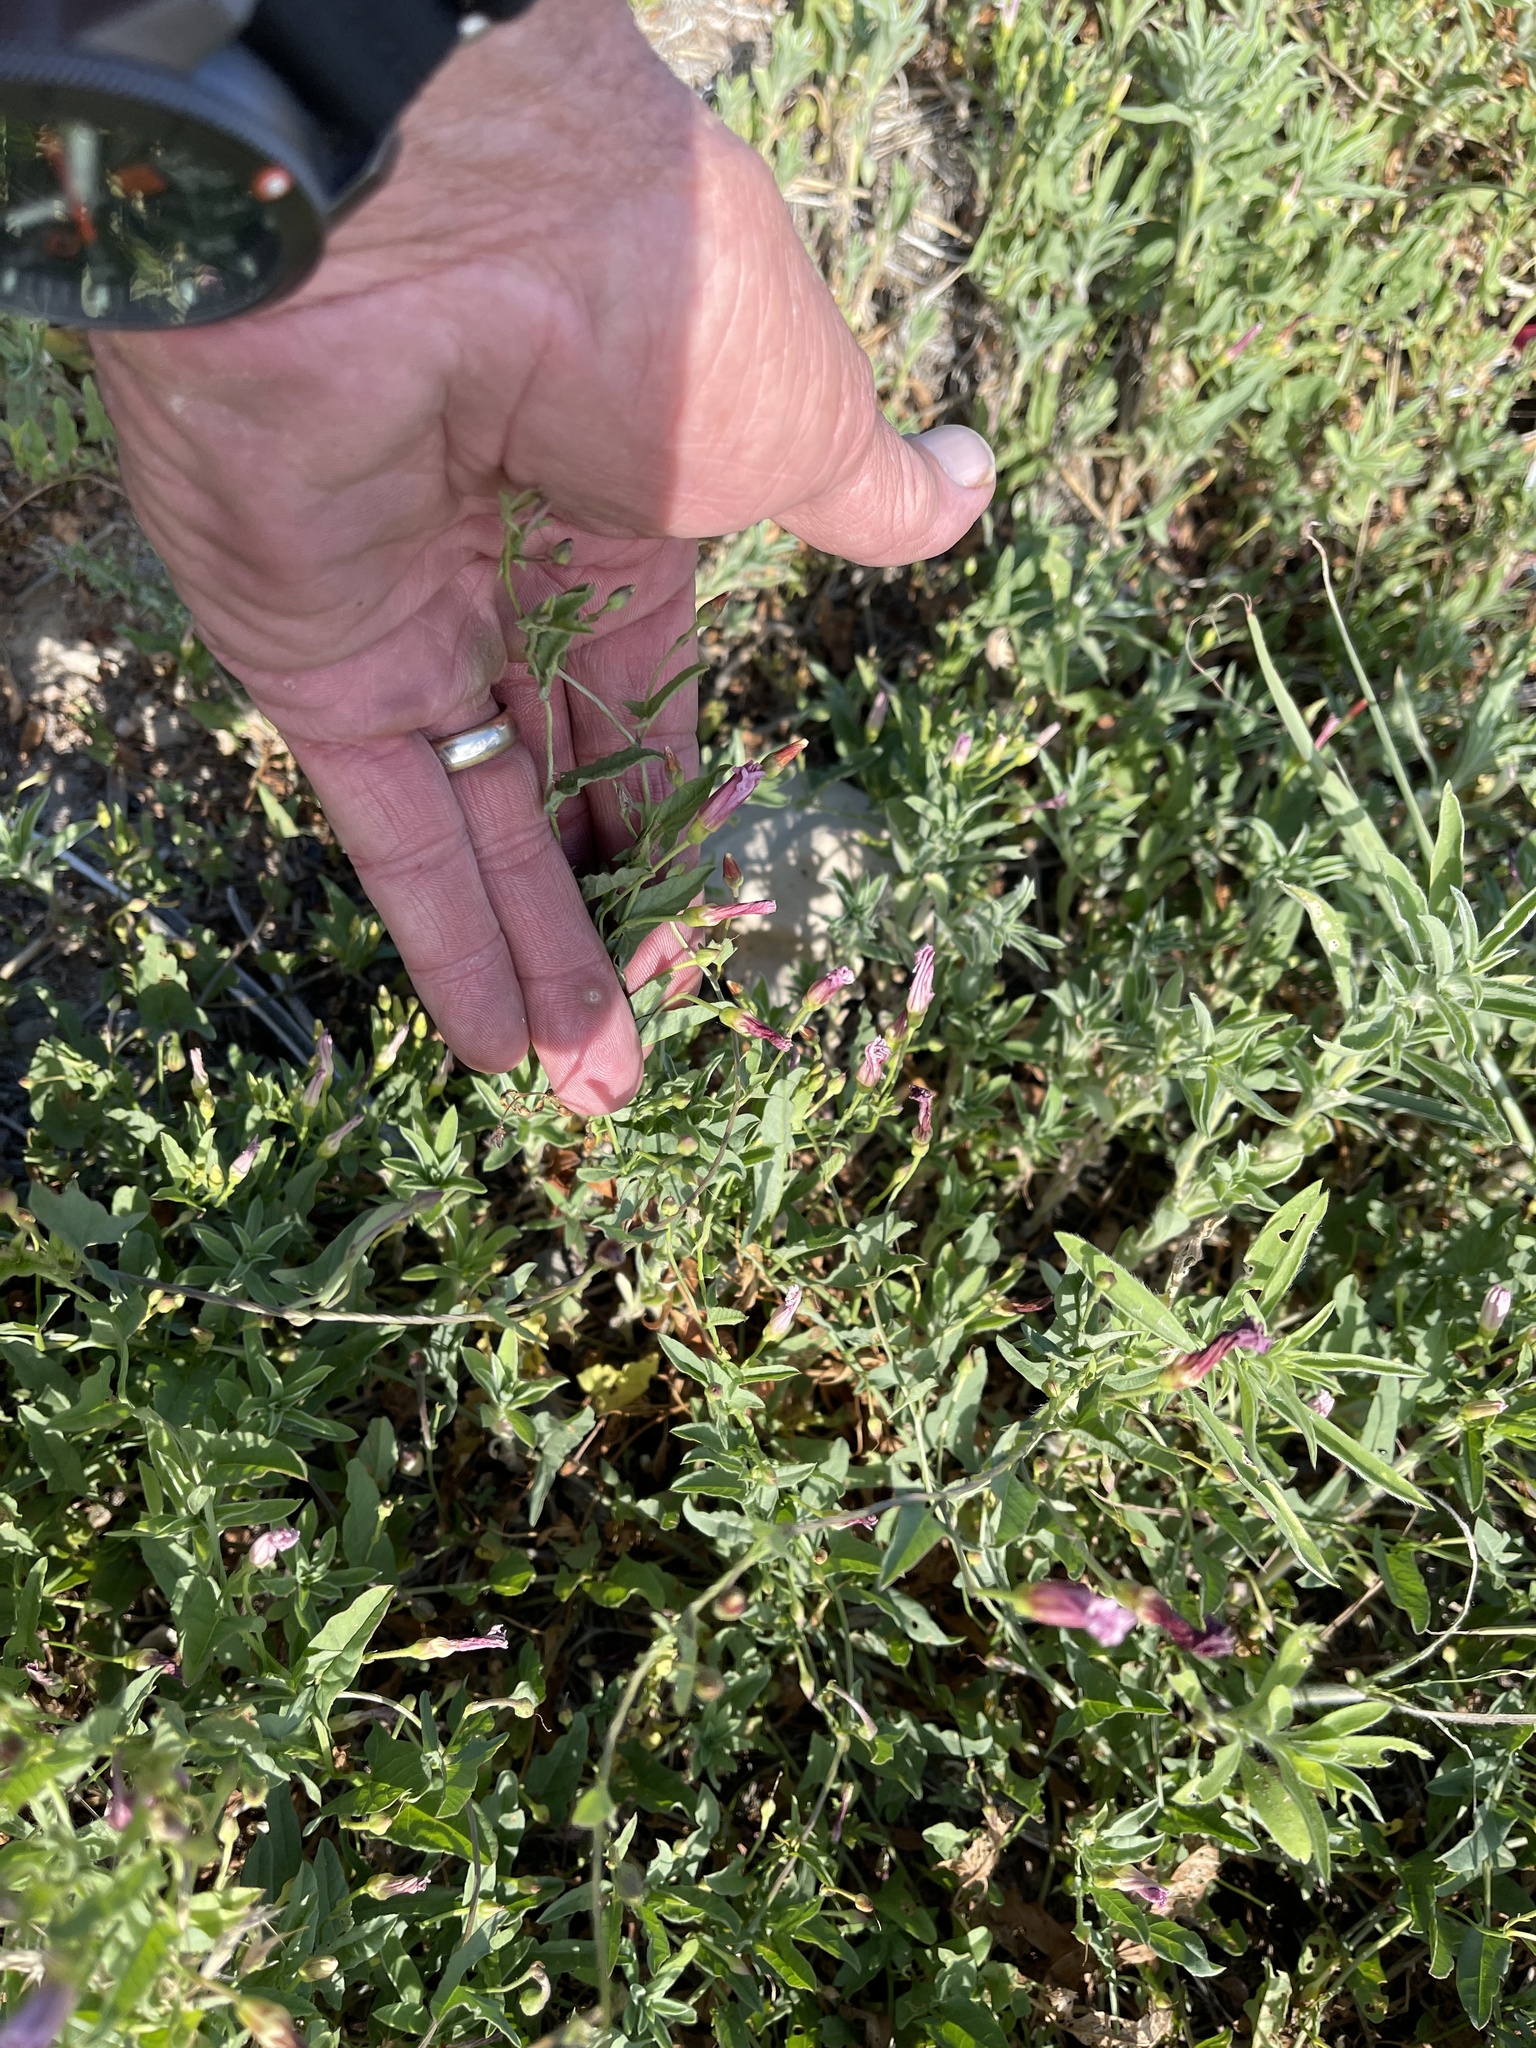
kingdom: Plantae
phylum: Tracheophyta
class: Magnoliopsida
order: Solanales
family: Convolvulaceae
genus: Convolvulus
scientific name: Convolvulus arvensis
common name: Field bindweed
